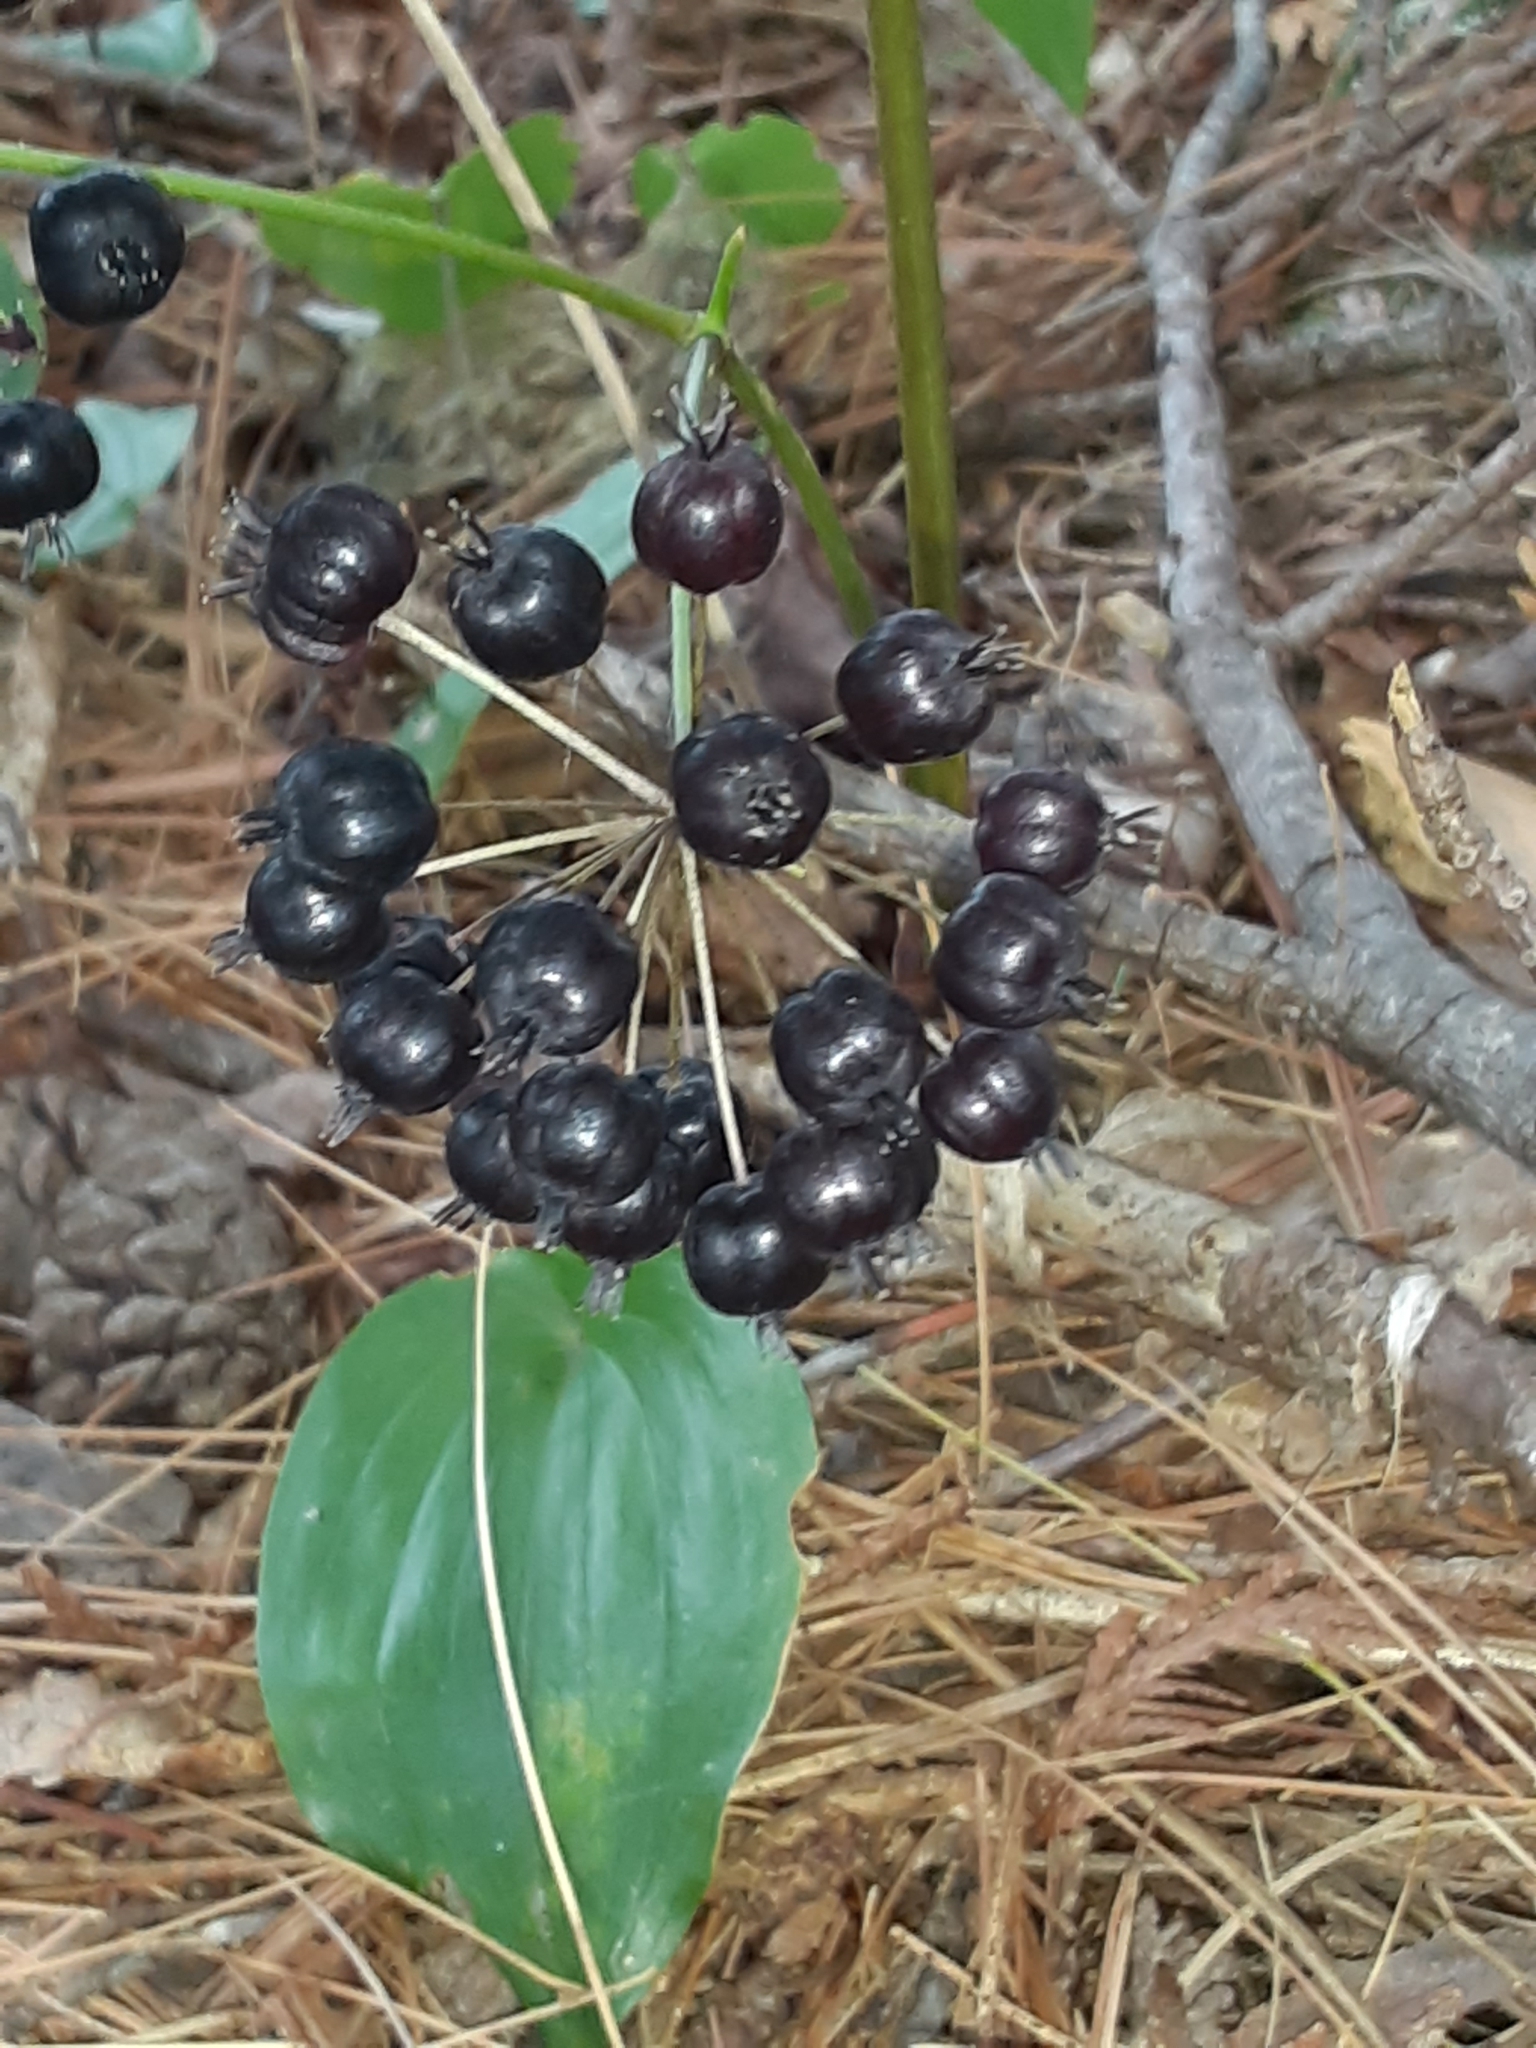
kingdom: Plantae
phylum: Tracheophyta
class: Magnoliopsida
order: Apiales
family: Araliaceae
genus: Aralia
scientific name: Aralia nudicaulis
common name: Wild sarsaparilla
